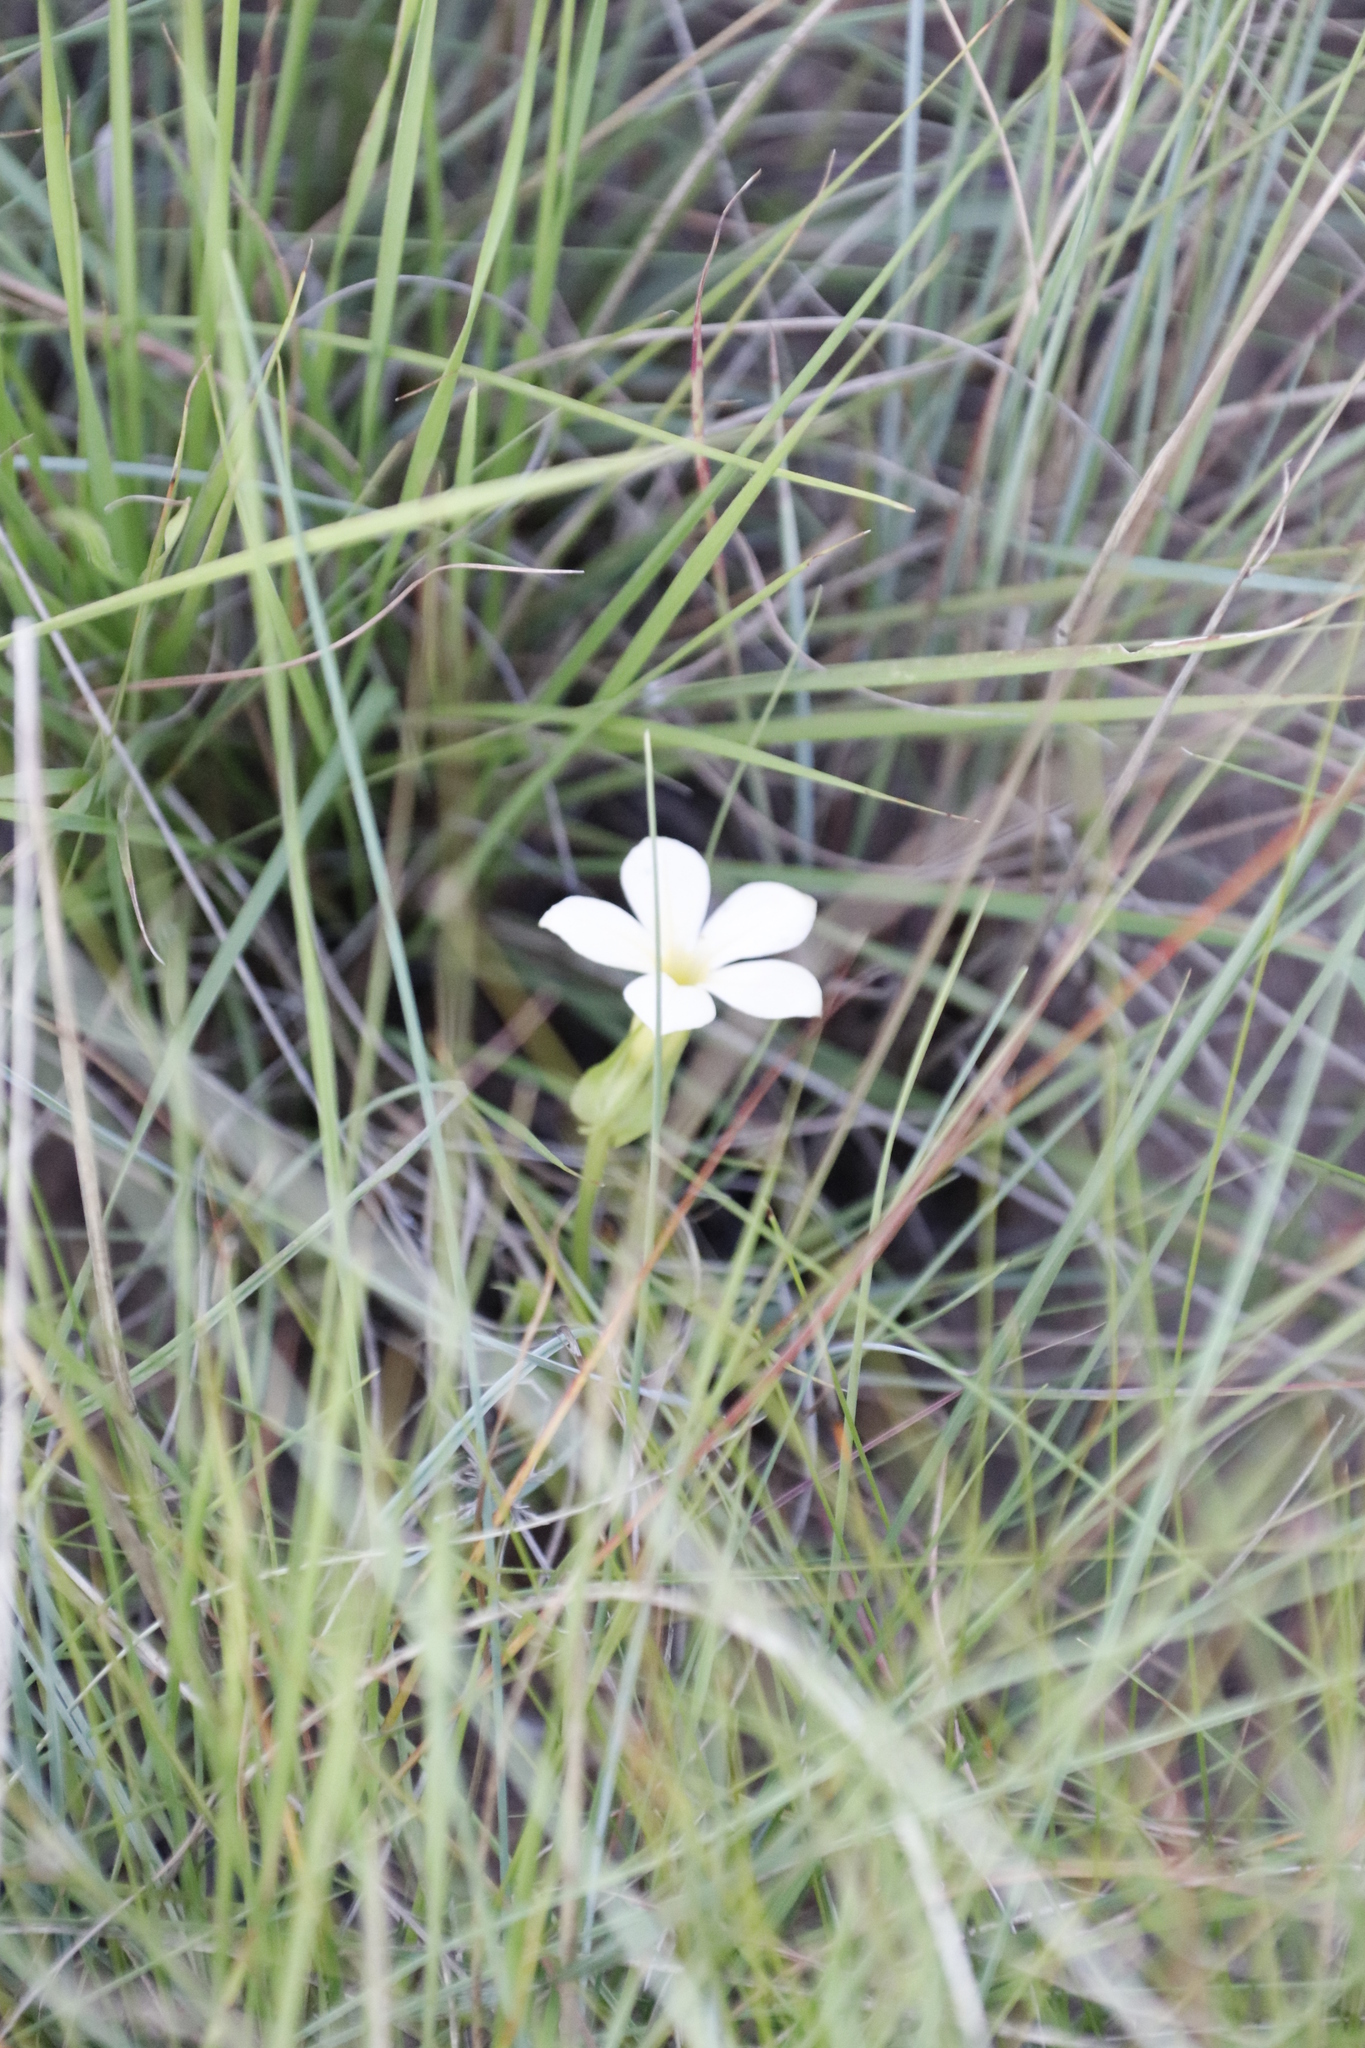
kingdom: Plantae
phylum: Tracheophyta
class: Magnoliopsida
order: Gentianales
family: Gentianaceae
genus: Exochaenium
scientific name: Exochaenium grande
